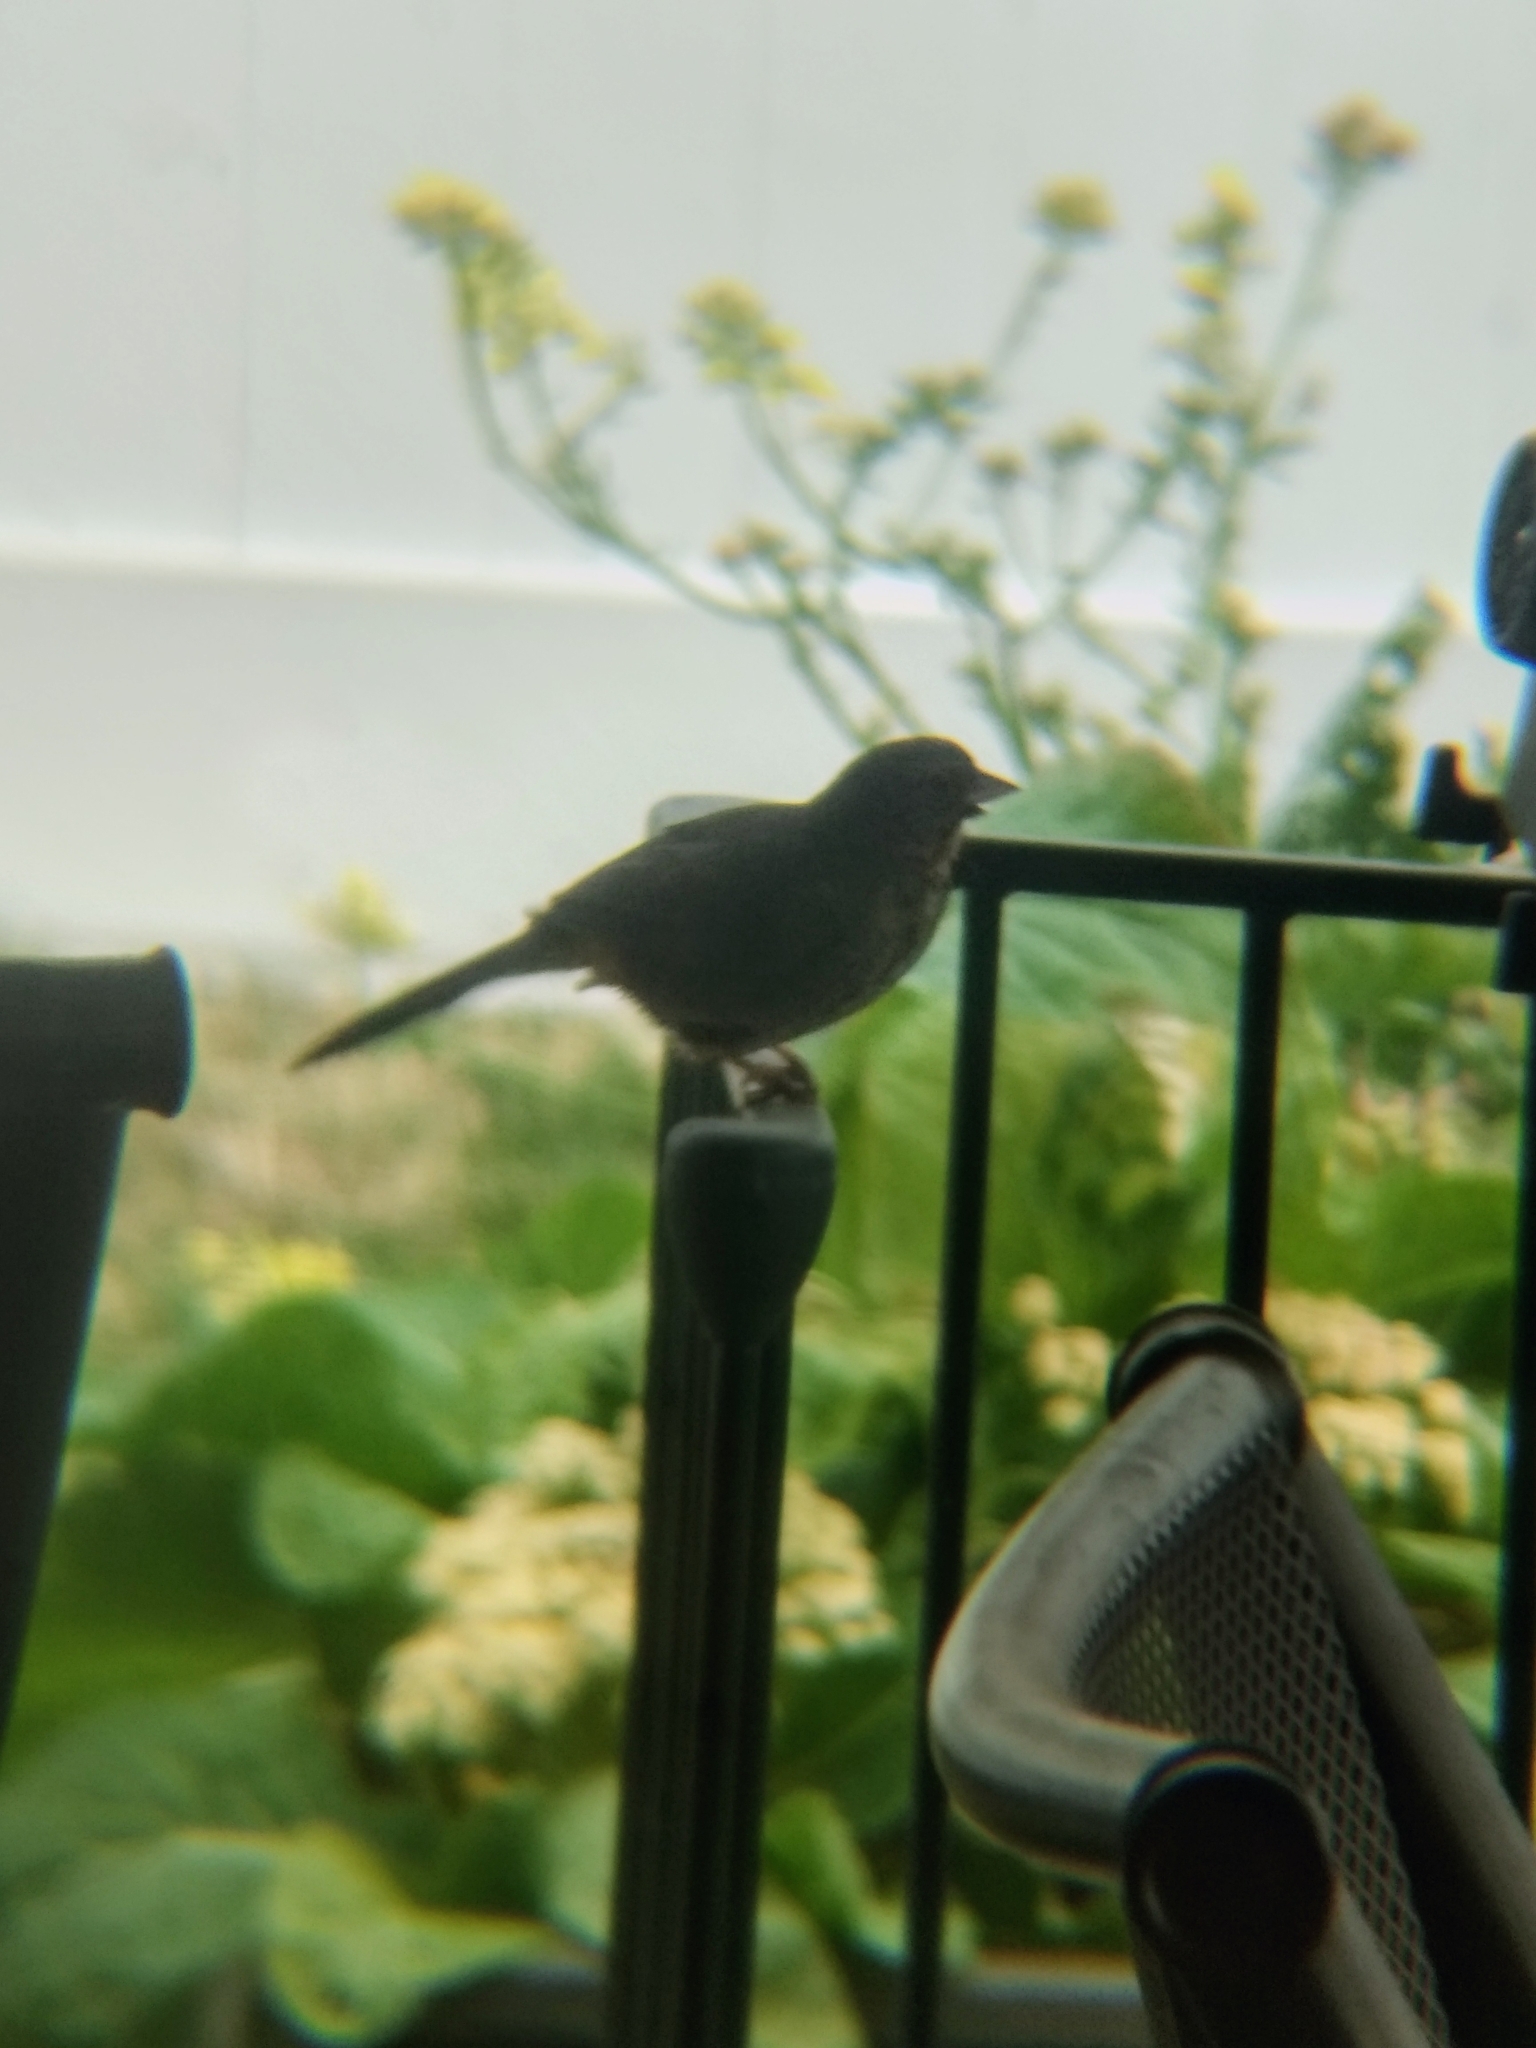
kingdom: Animalia
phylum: Chordata
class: Aves
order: Passeriformes
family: Passerellidae
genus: Melozone
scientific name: Melozone crissalis
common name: California towhee
